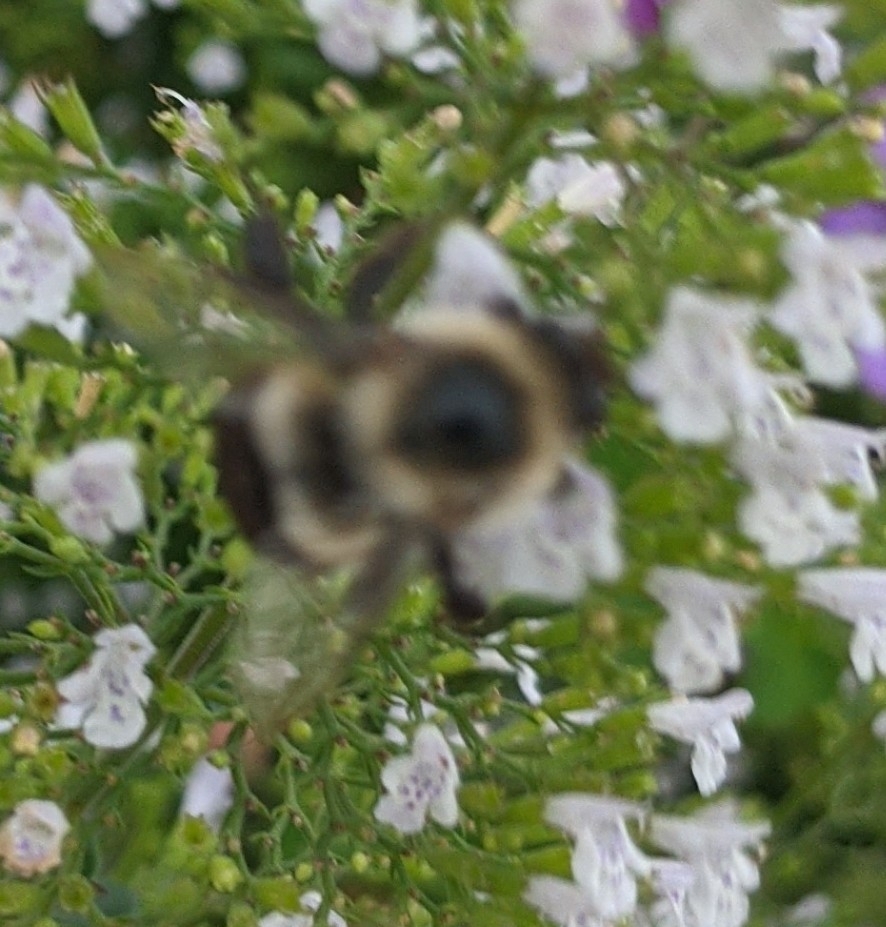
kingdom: Animalia
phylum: Arthropoda
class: Insecta
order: Hymenoptera
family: Apidae
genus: Bombus
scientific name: Bombus impatiens
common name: Common eastern bumble bee
